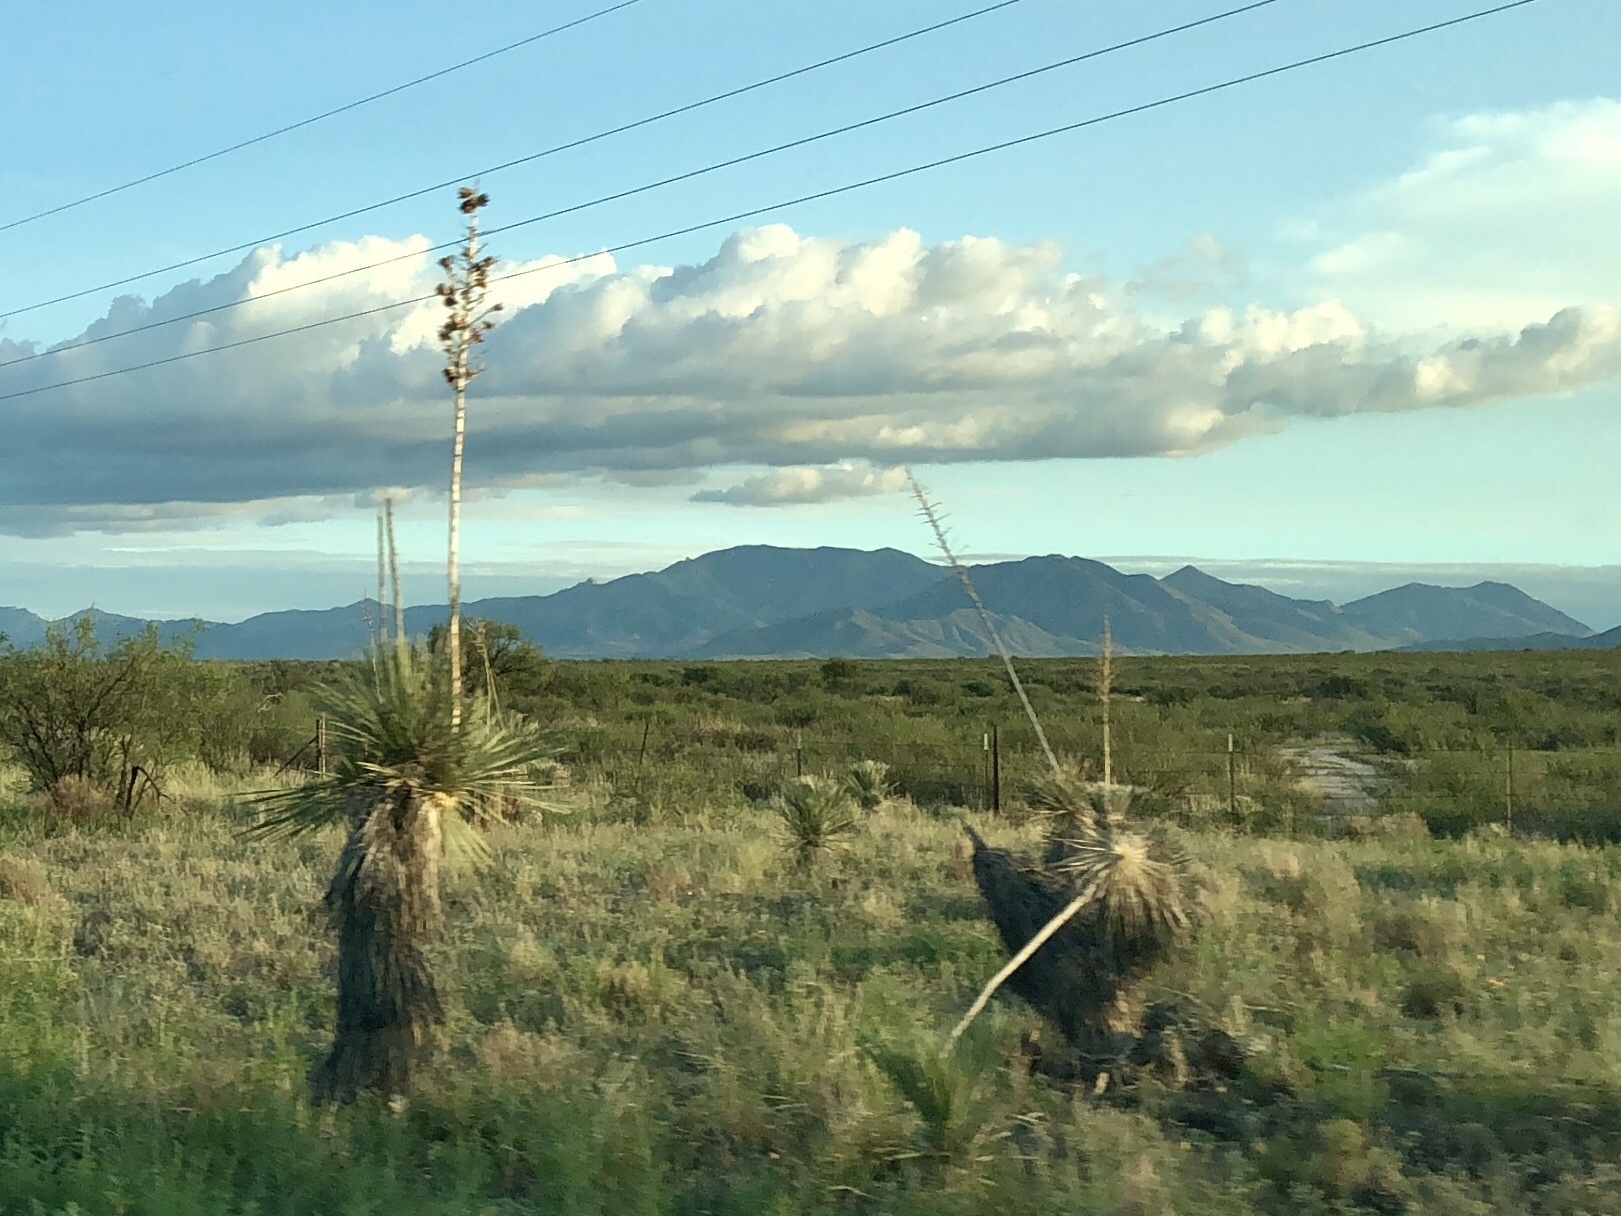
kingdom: Plantae
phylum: Tracheophyta
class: Liliopsida
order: Asparagales
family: Asparagaceae
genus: Yucca
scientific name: Yucca elata
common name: Palmella
